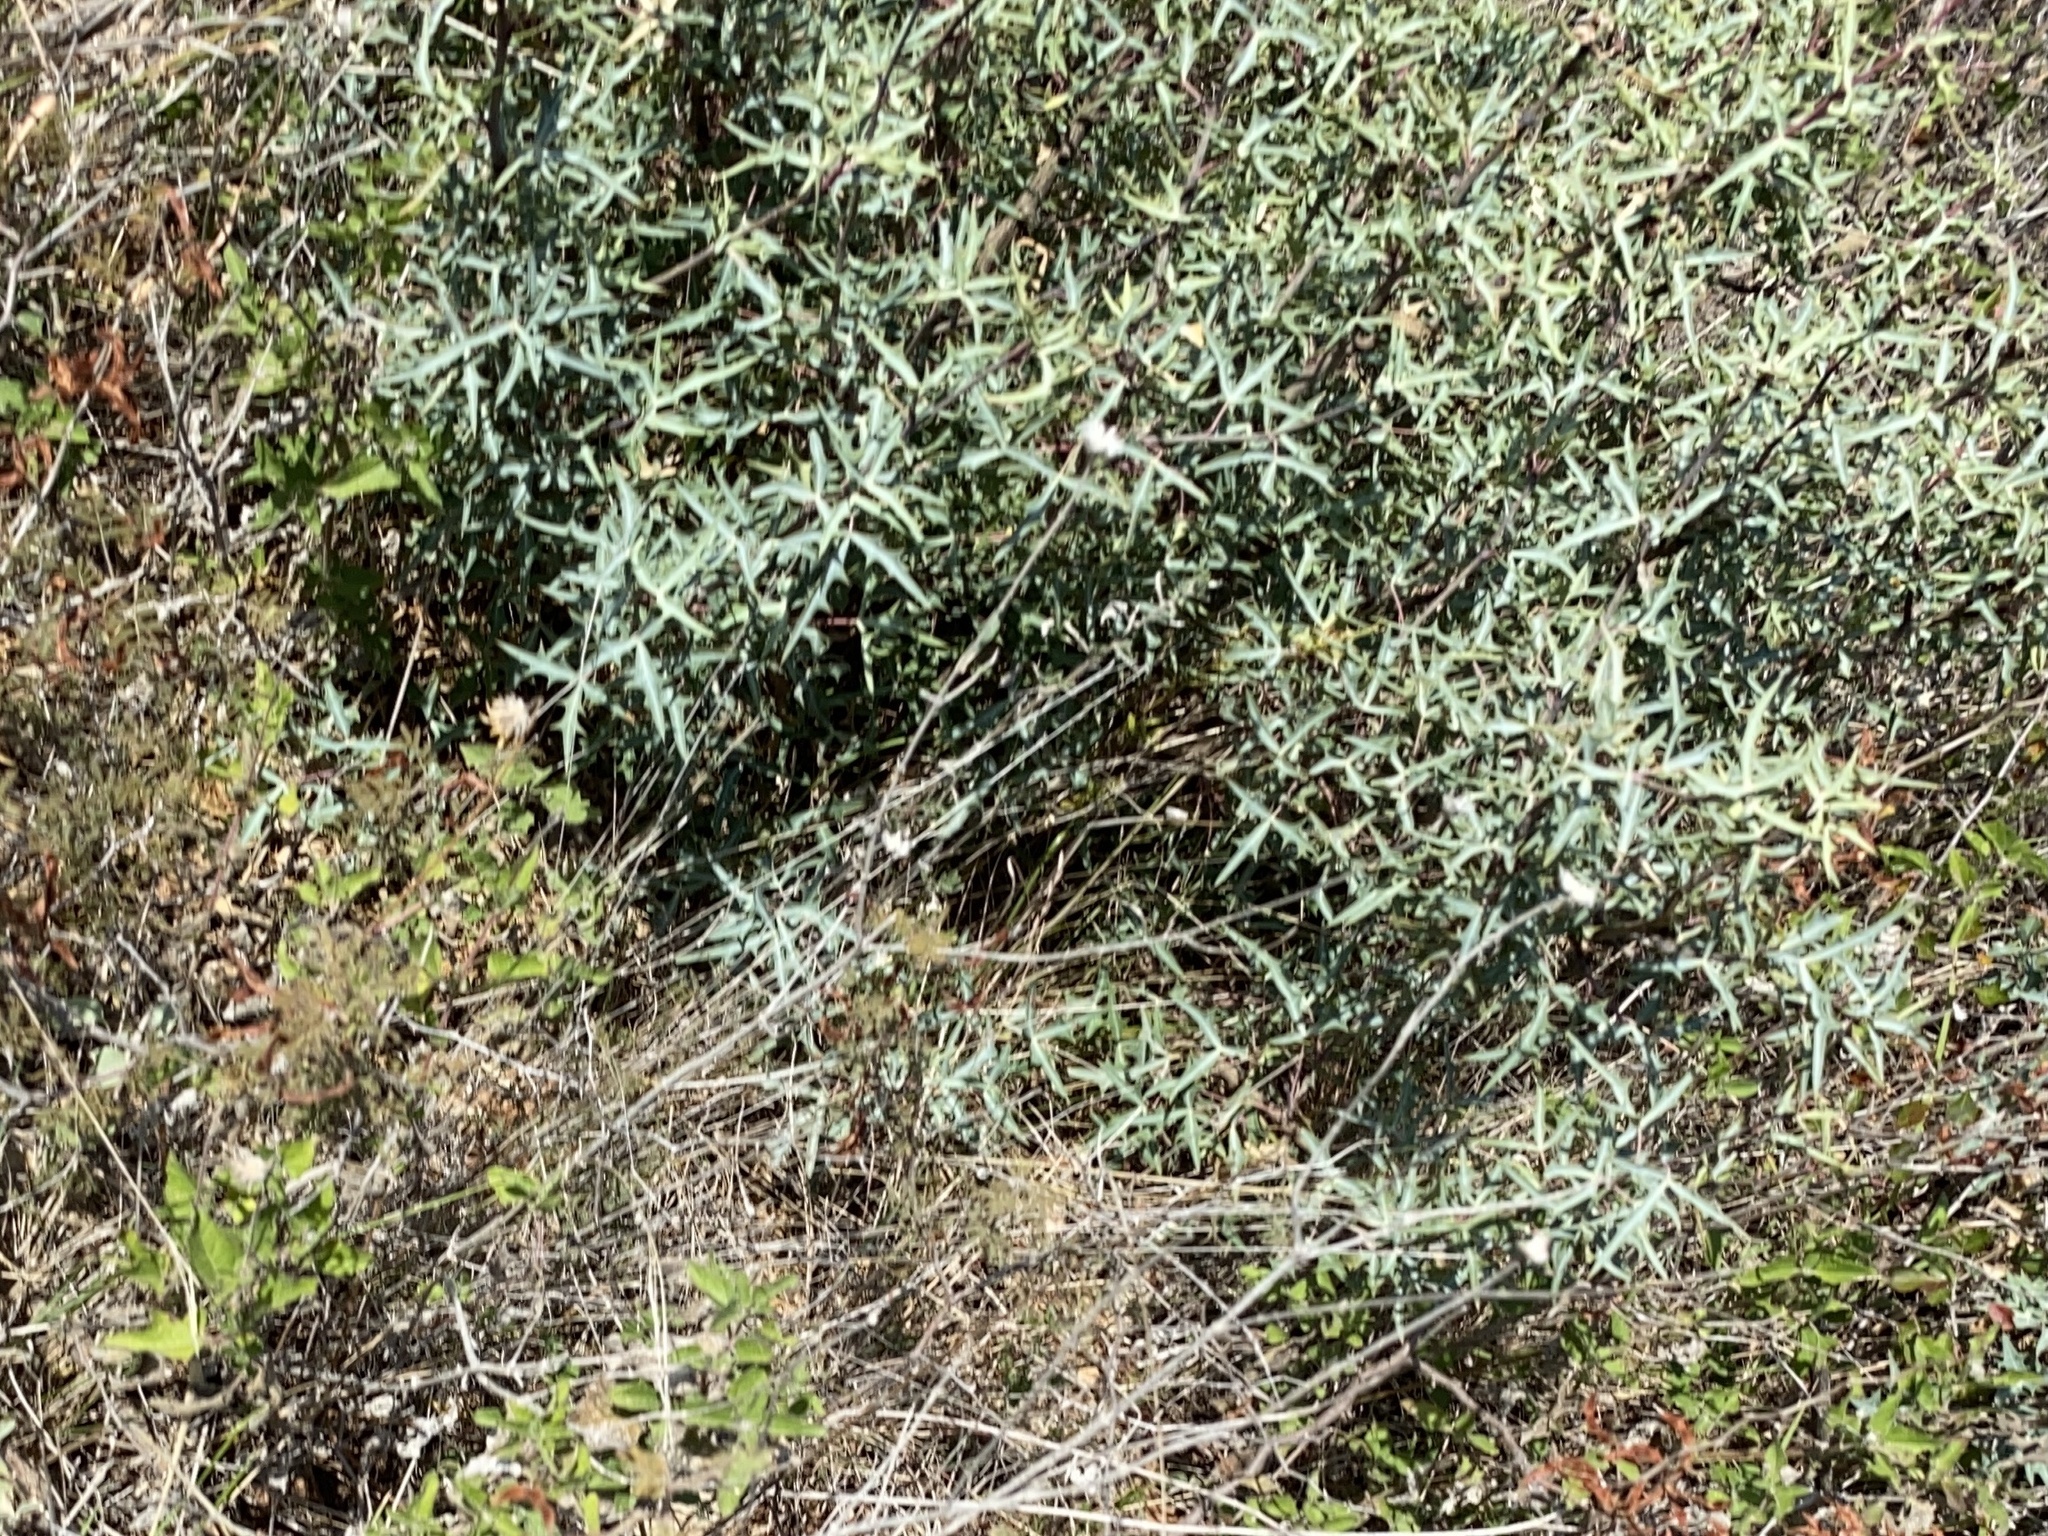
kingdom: Plantae
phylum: Tracheophyta
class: Magnoliopsida
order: Ranunculales
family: Berberidaceae
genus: Alloberberis
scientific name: Alloberberis trifoliolata
